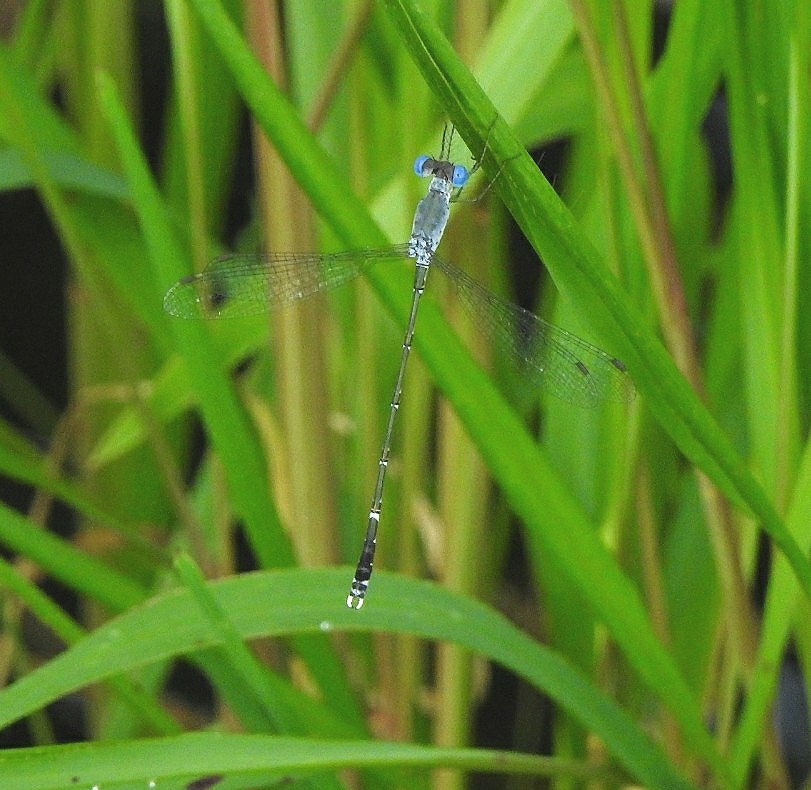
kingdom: Animalia
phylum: Arthropoda
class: Insecta
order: Odonata
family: Lestidae
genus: Lestes
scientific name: Lestes praemorsus
